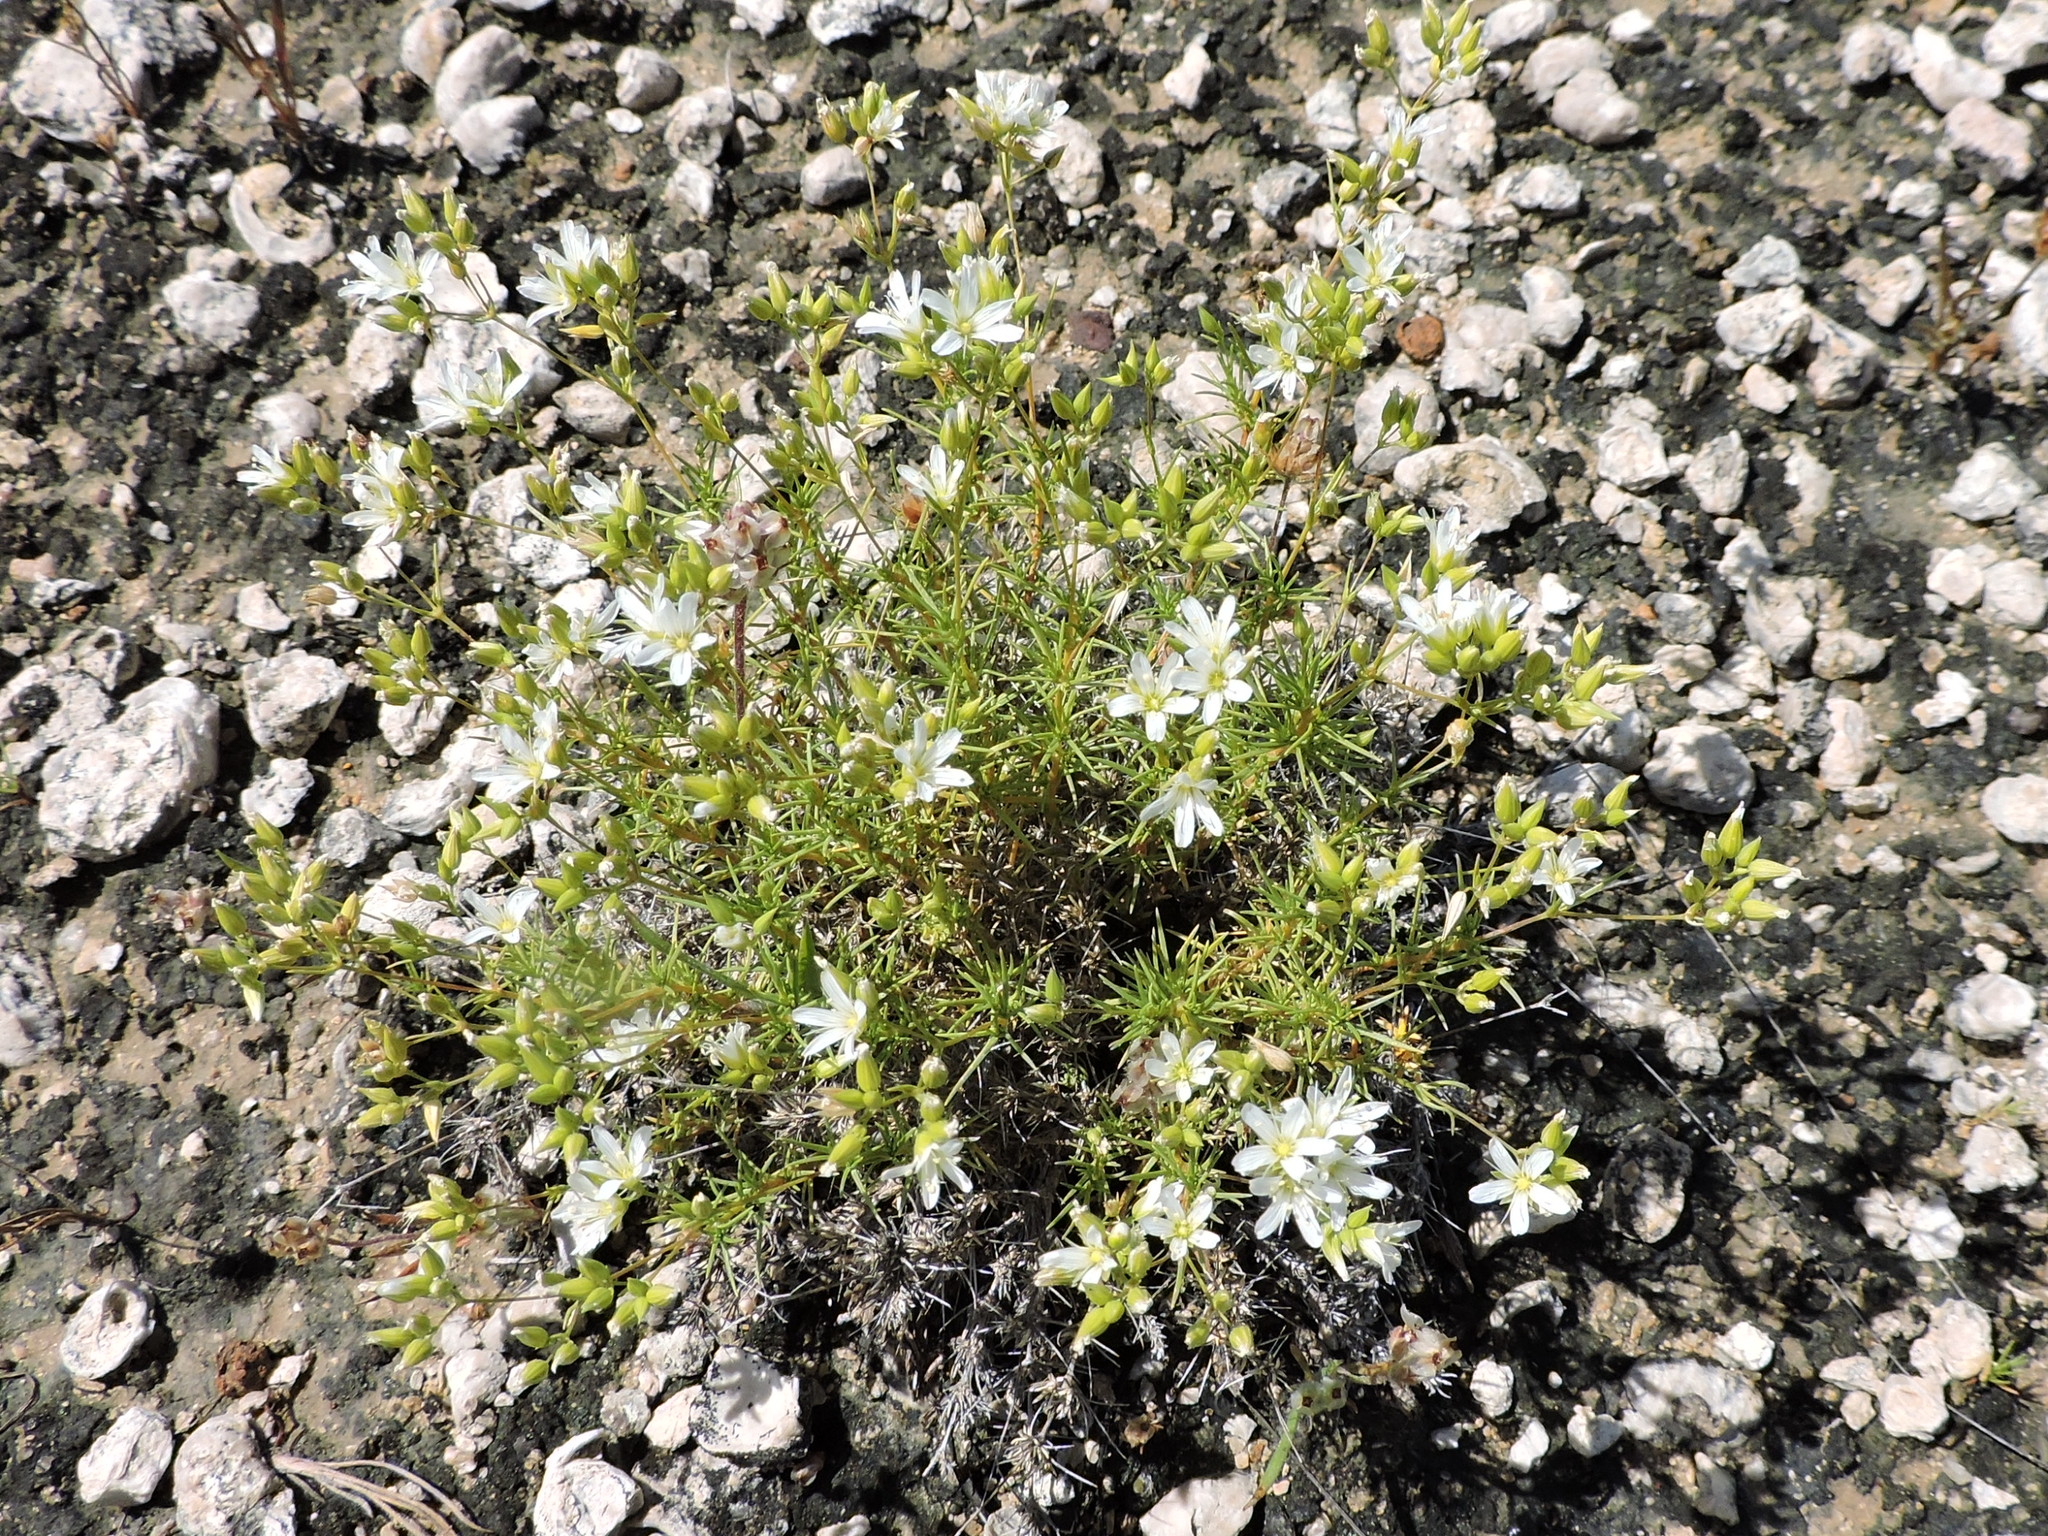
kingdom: Plantae
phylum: Tracheophyta
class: Magnoliopsida
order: Caryophyllales
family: Caryophyllaceae
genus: Sabulina
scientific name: Sabulina michauxii
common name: Michaux's stitchwort
